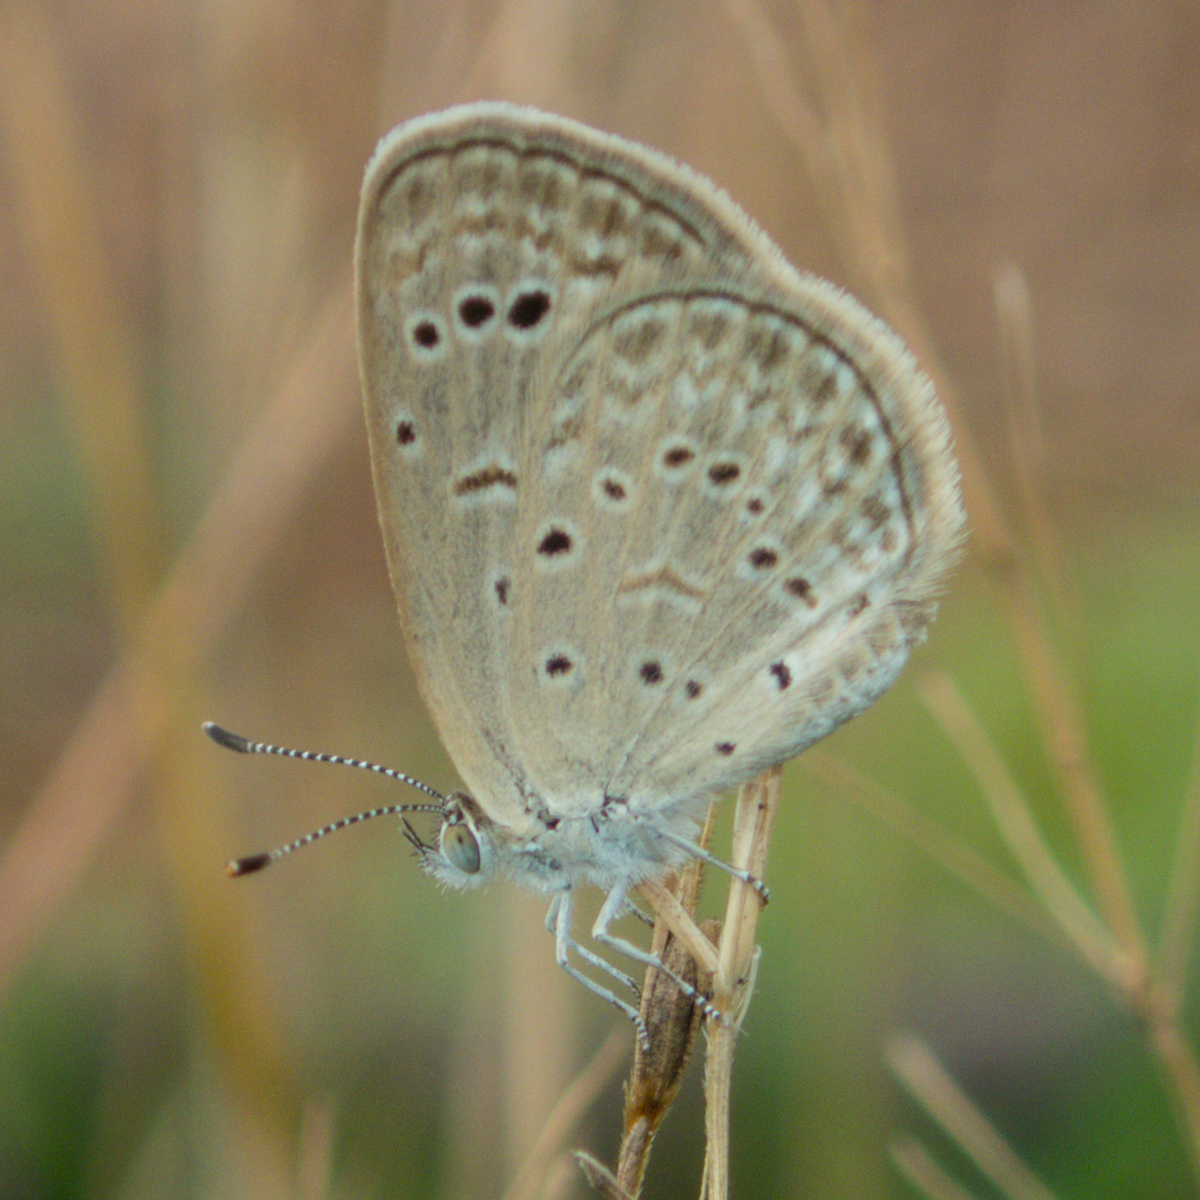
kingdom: Animalia
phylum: Arthropoda
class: Insecta
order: Lepidoptera
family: Lycaenidae
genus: Zizeeria
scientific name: Zizeeria karsandra
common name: Dark grass blue
